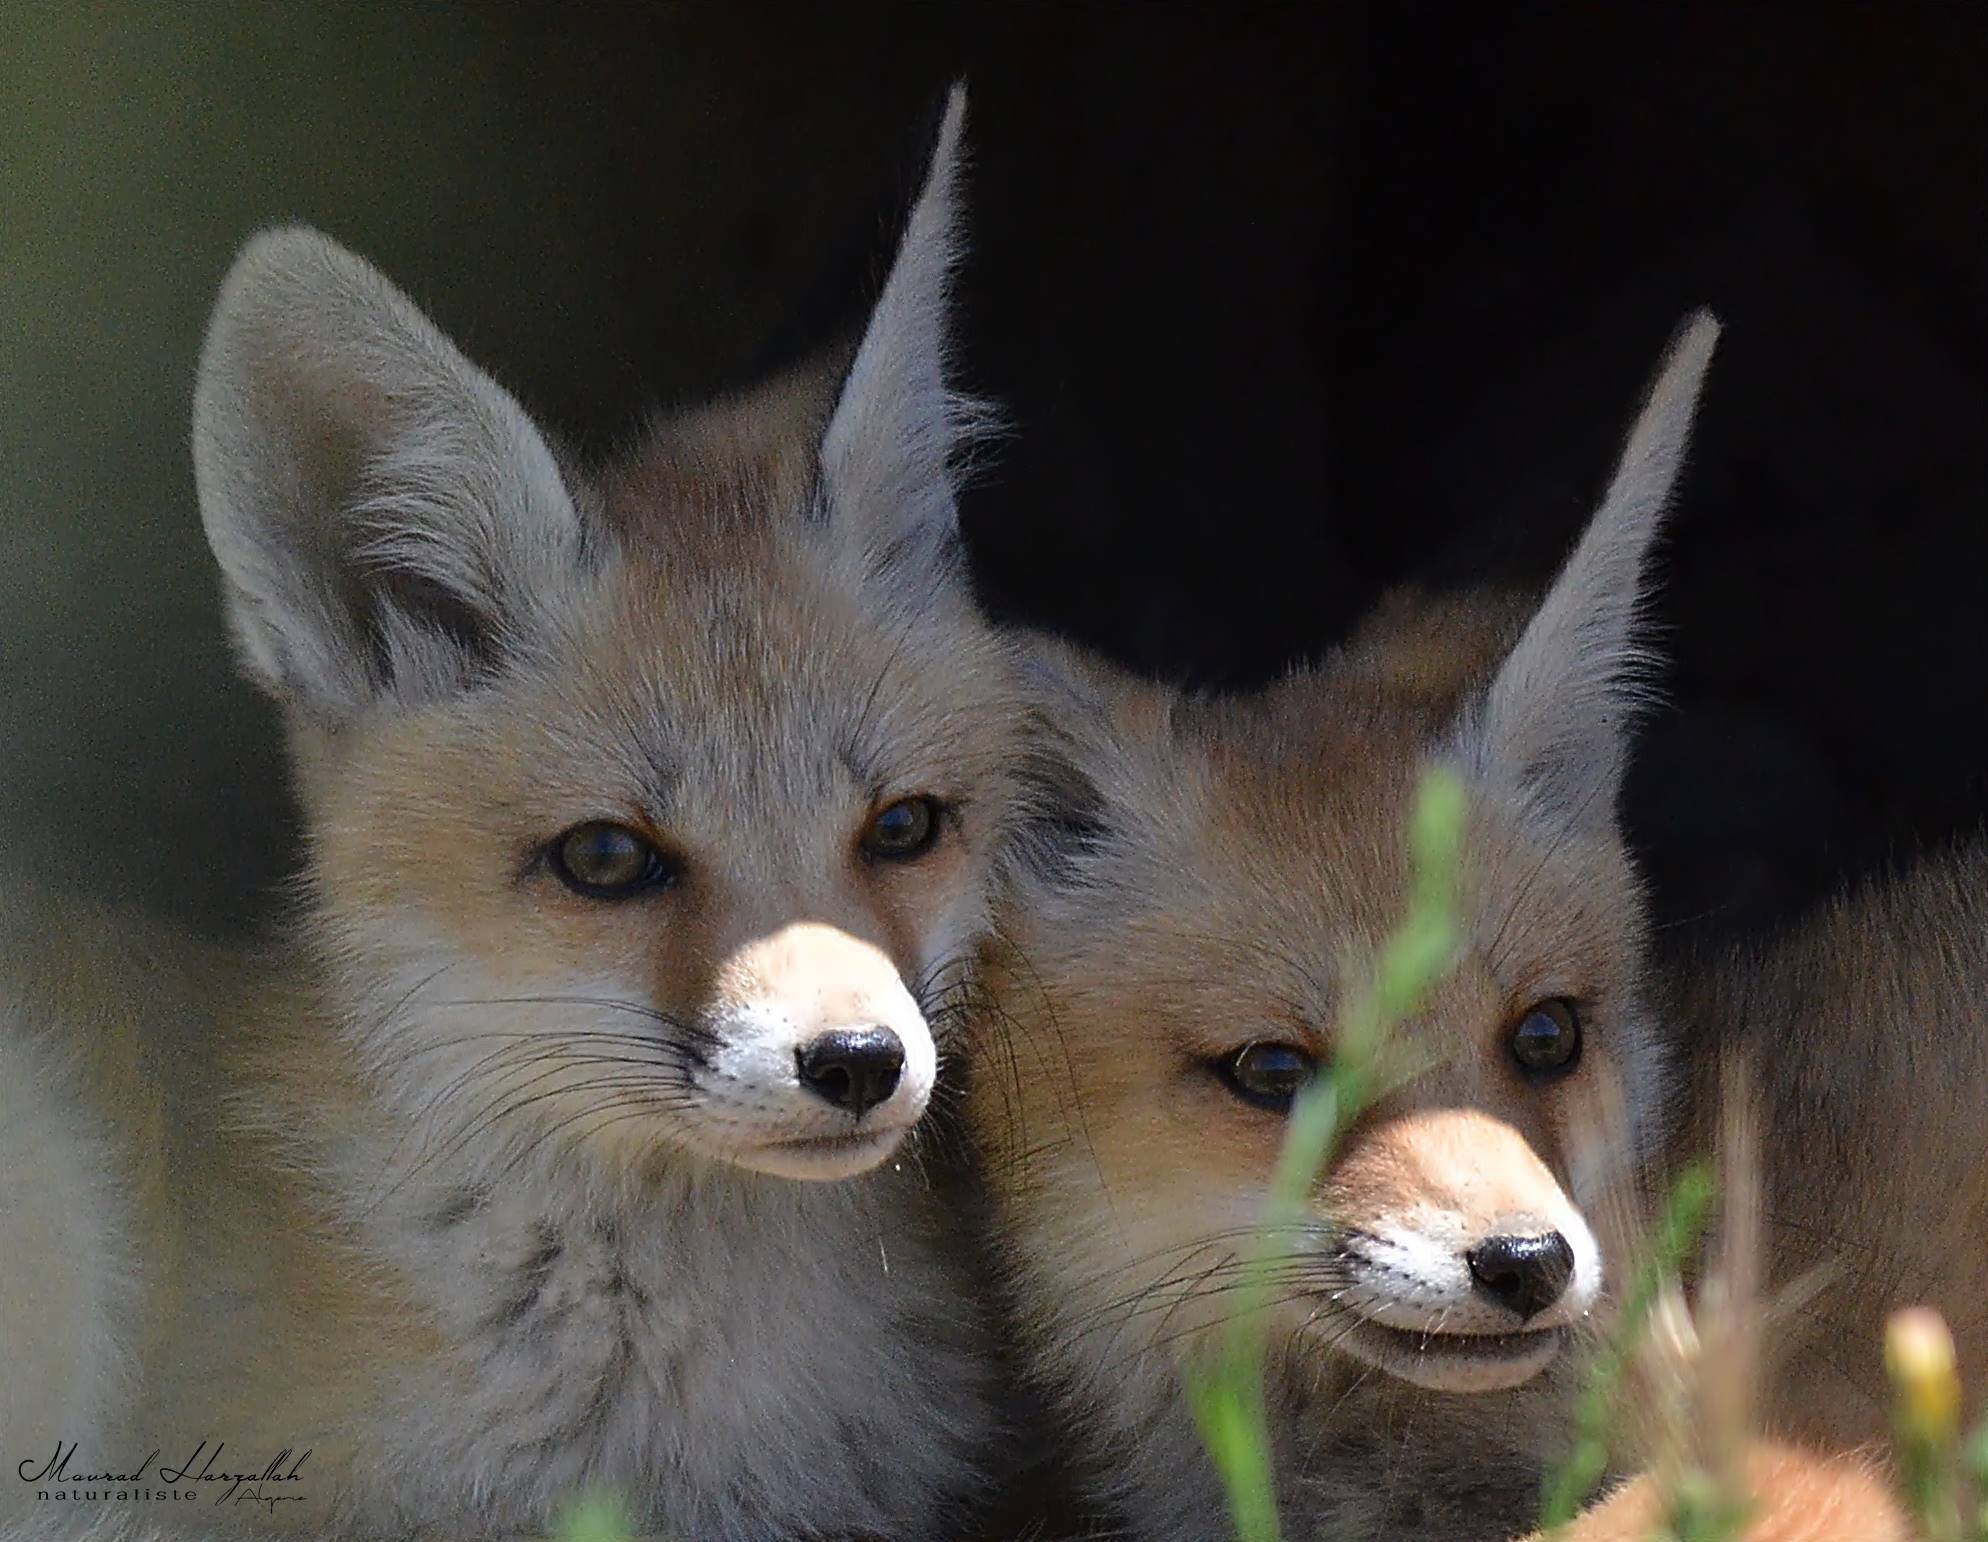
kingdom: Animalia
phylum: Chordata
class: Mammalia
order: Carnivora
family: Canidae
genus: Vulpes
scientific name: Vulpes vulpes
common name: Red fox
